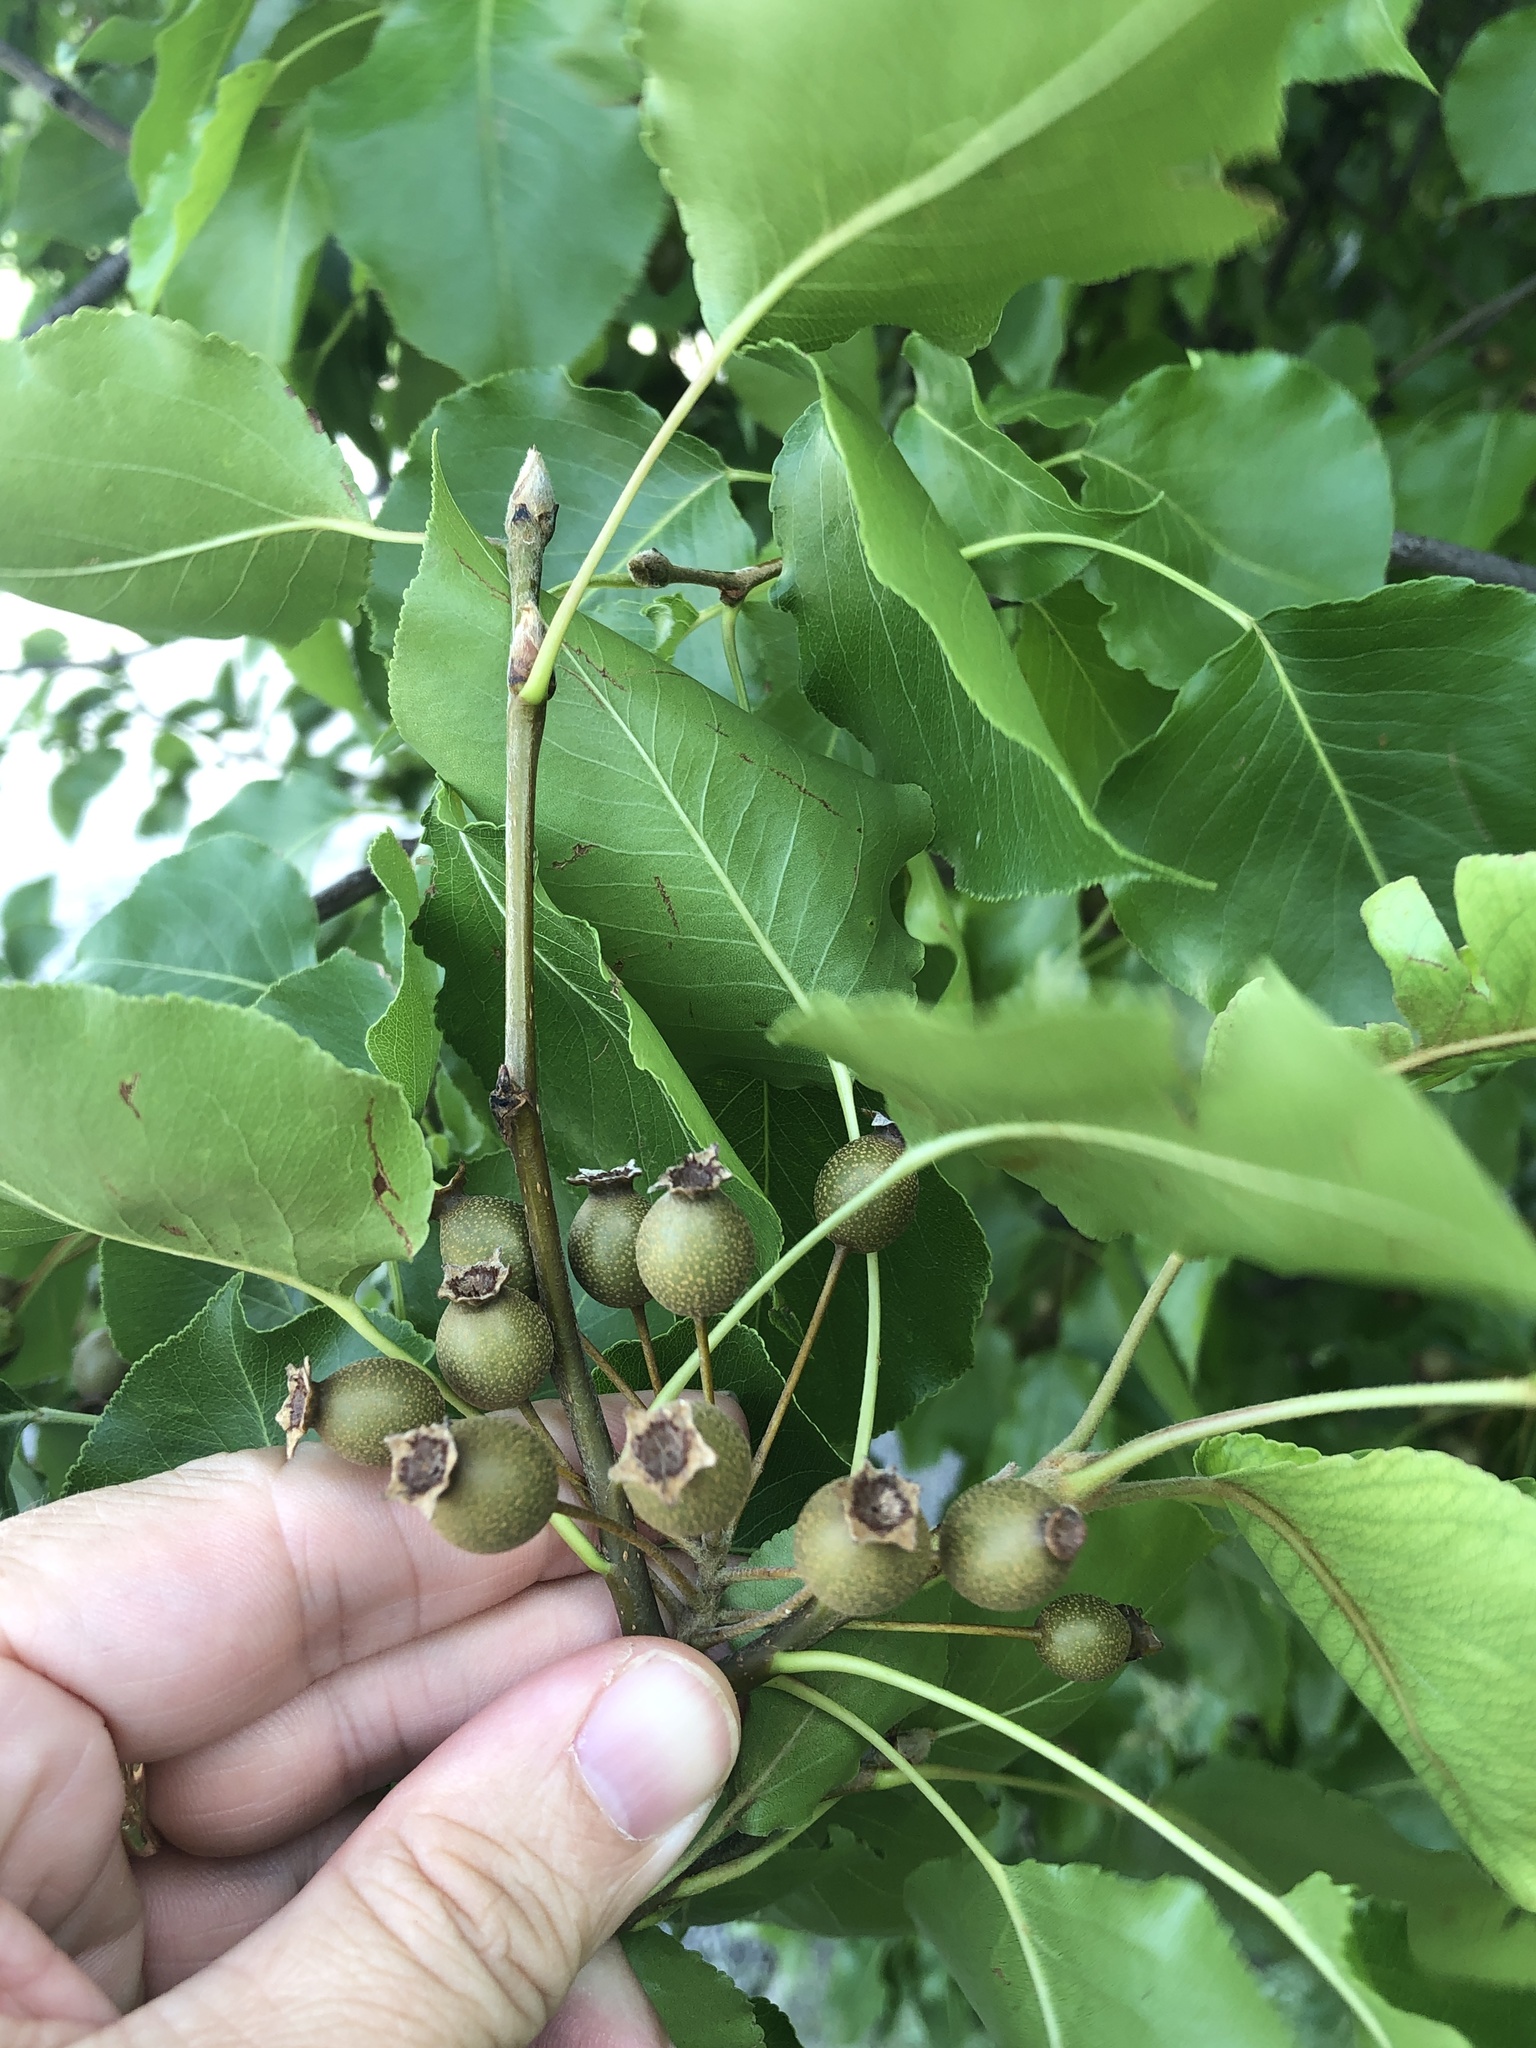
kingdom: Plantae
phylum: Tracheophyta
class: Magnoliopsida
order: Rosales
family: Rosaceae
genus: Pyrus
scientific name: Pyrus calleryana
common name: Callery pear
